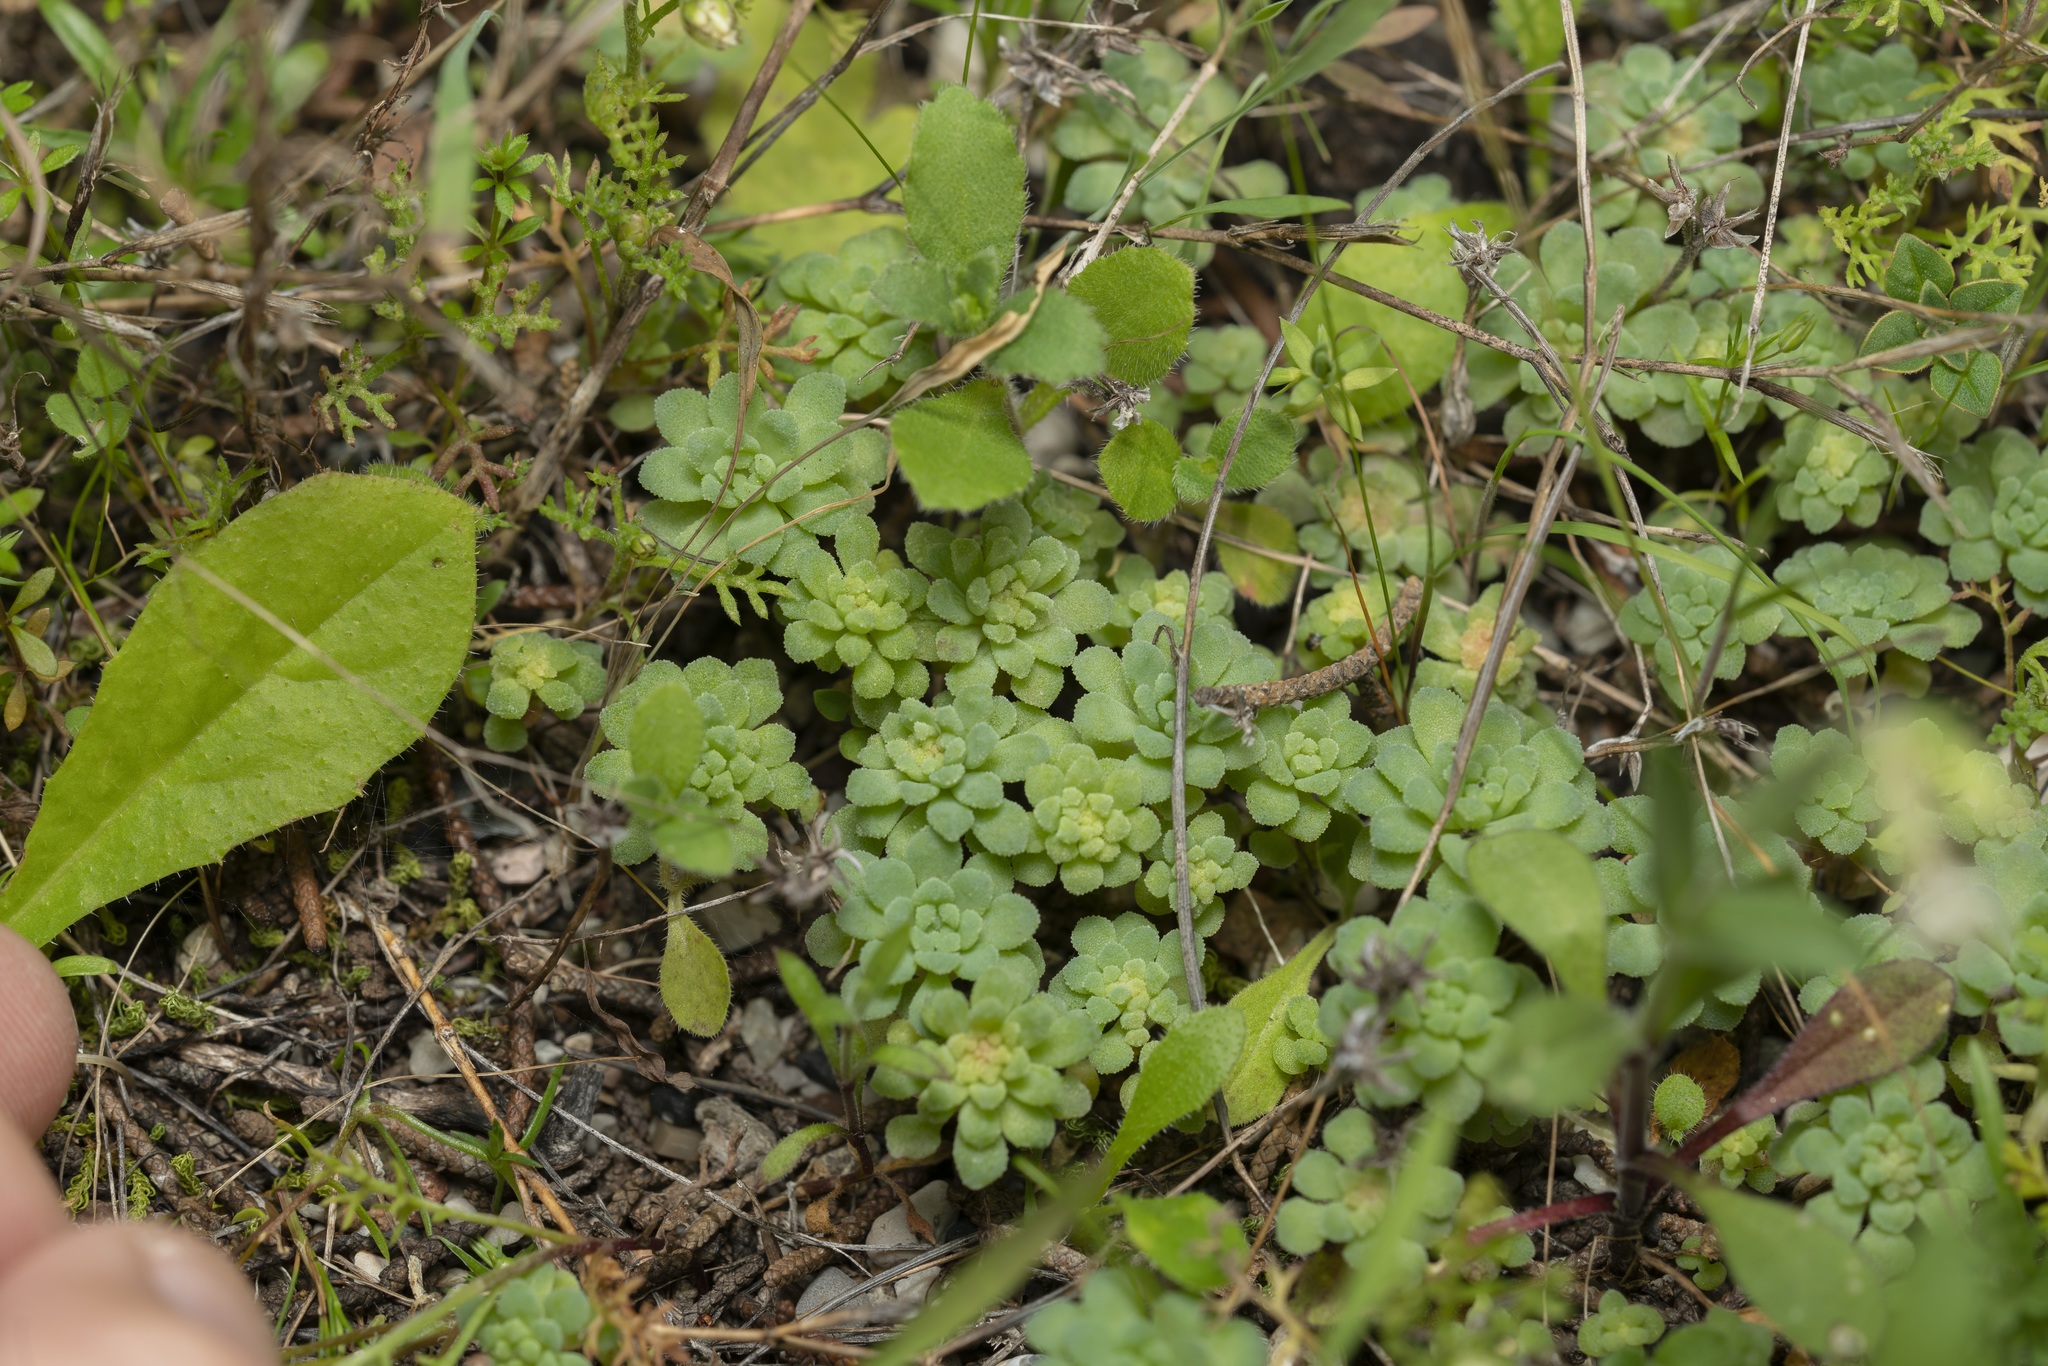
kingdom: Plantae
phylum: Tracheophyta
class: Magnoliopsida
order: Saxifragales
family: Crassulaceae
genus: Sedum
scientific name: Sedum rubens
